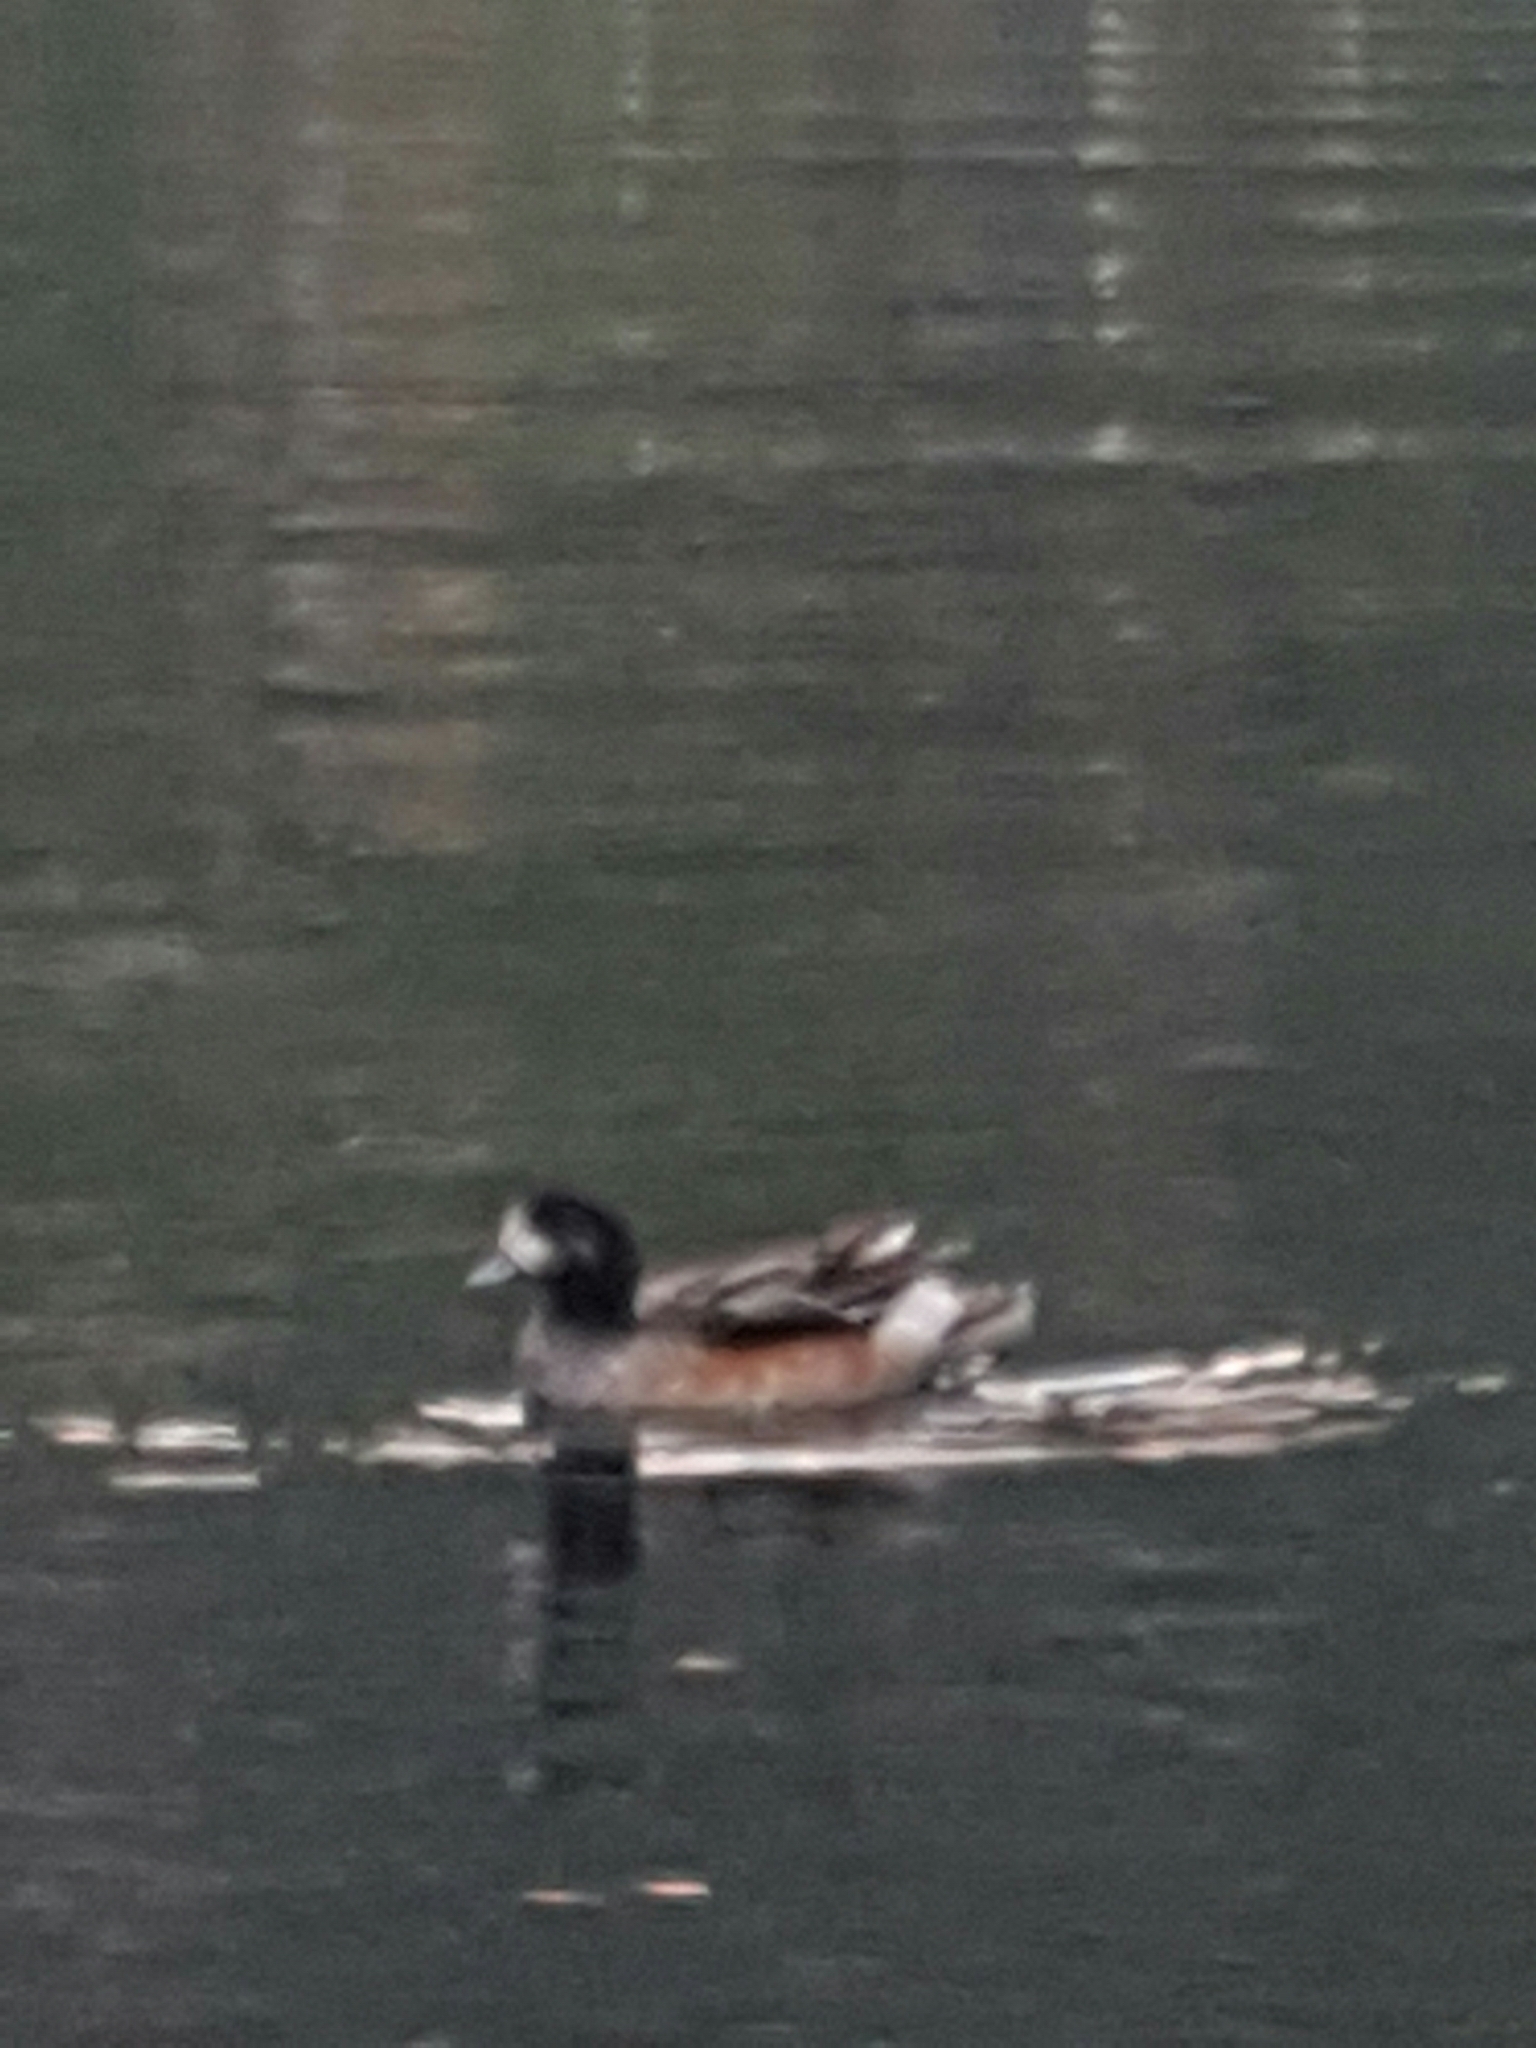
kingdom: Animalia
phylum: Chordata
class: Aves
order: Anseriformes
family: Anatidae
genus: Mareca
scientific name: Mareca sibilatrix
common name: Chiloe wigeon
